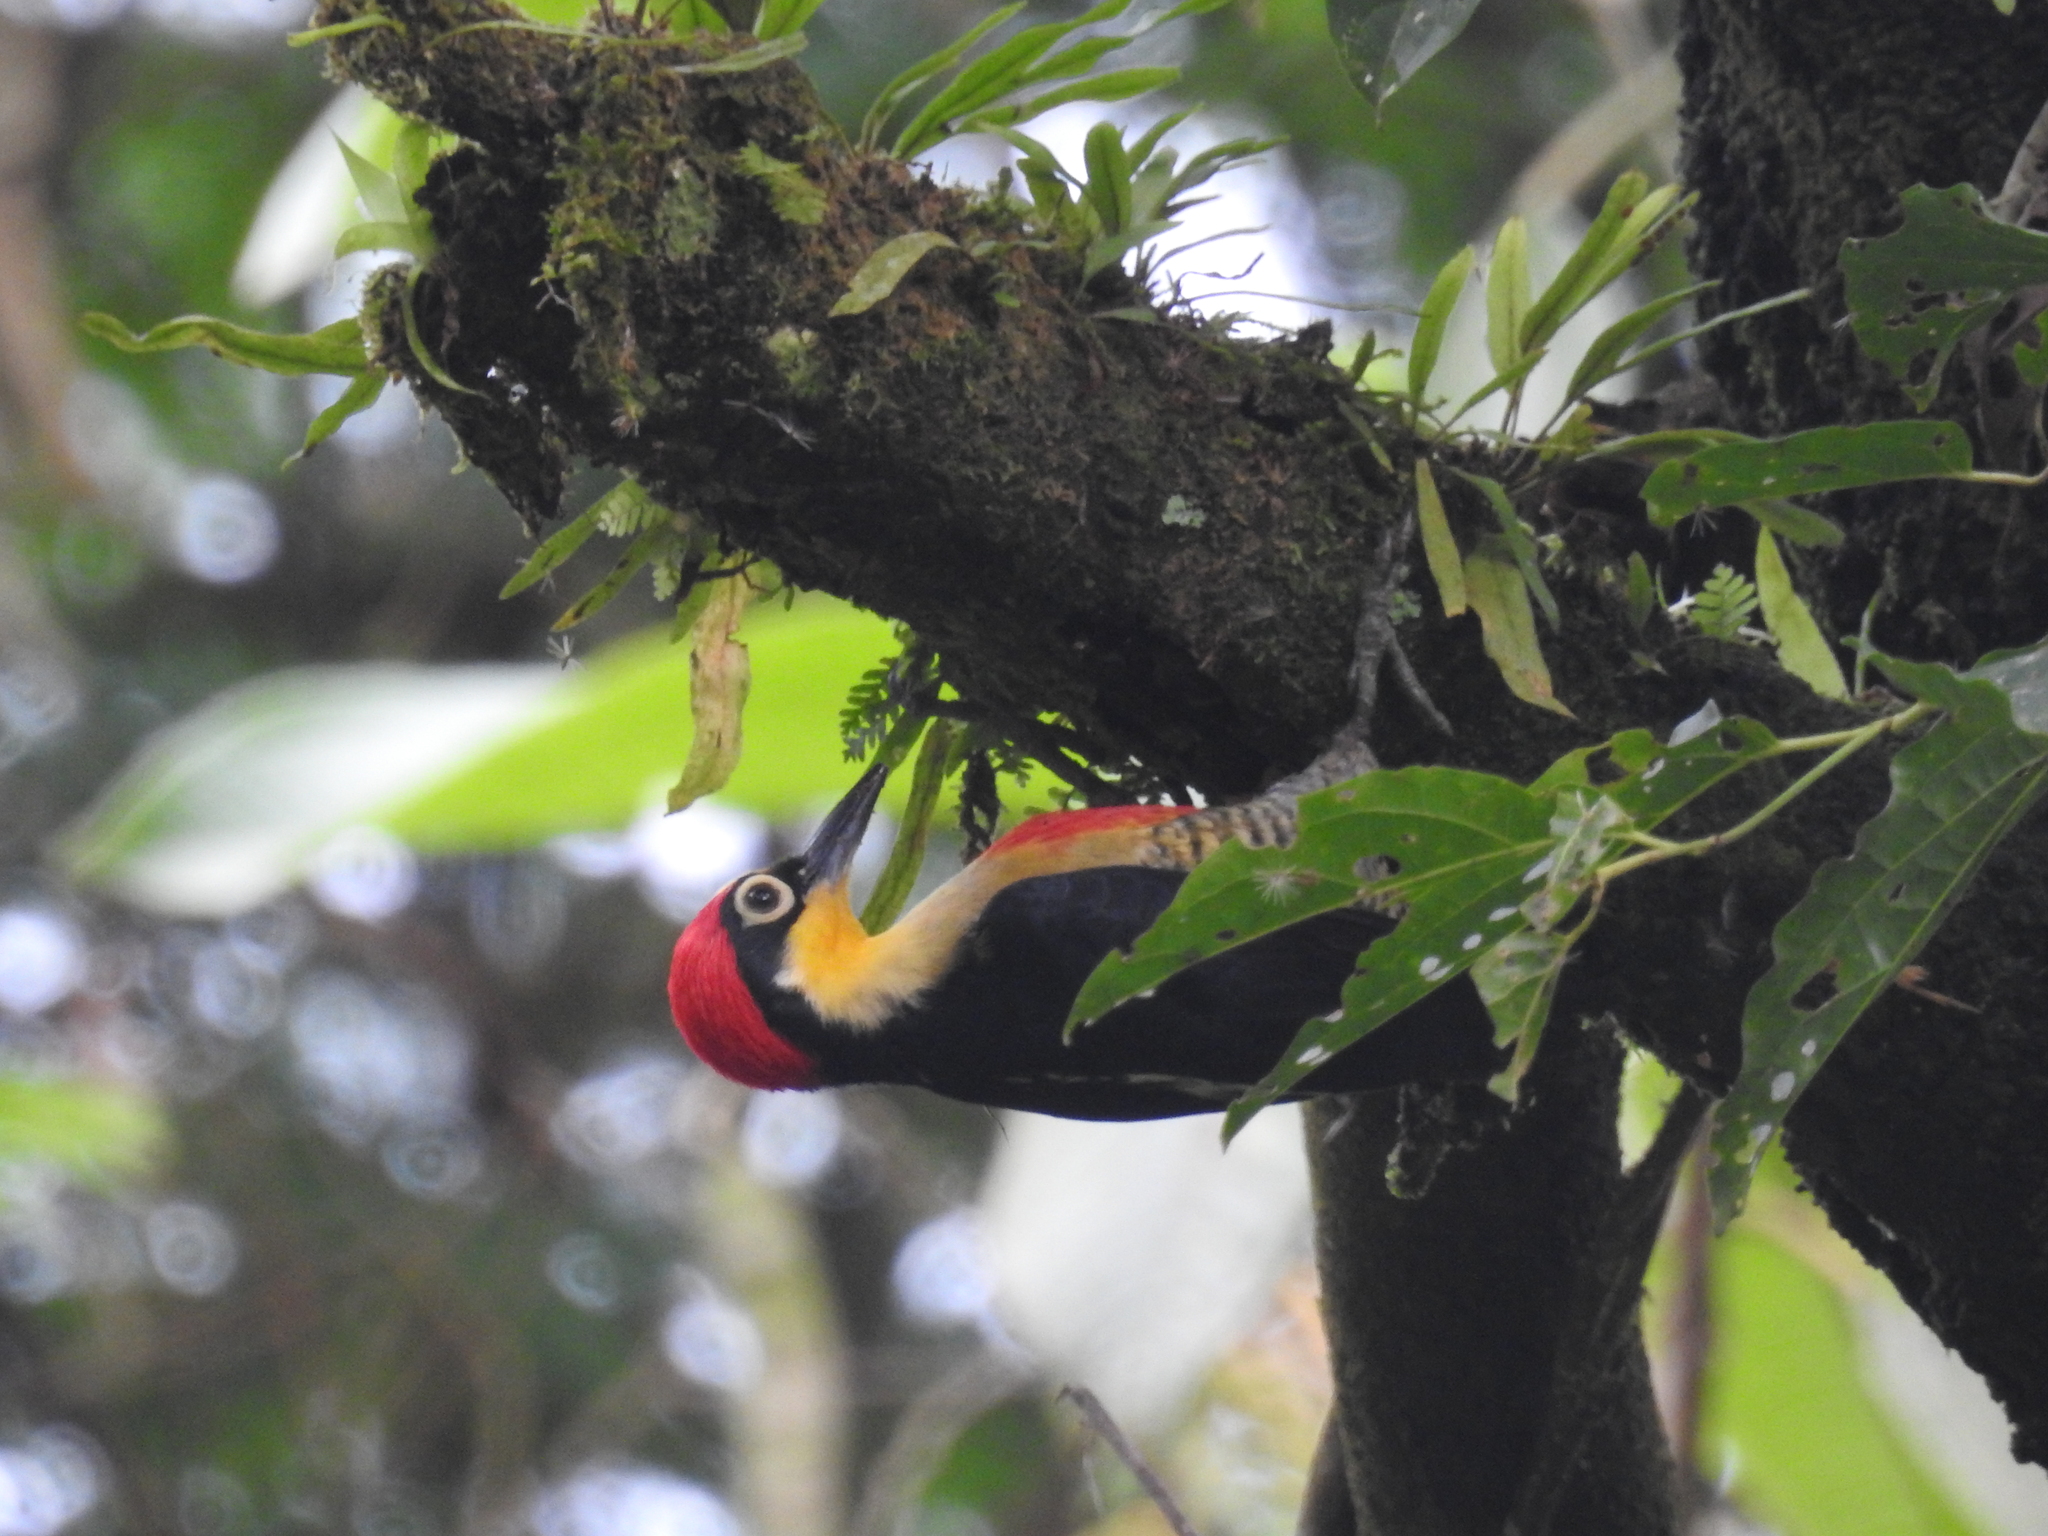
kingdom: Animalia
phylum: Chordata
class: Aves
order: Piciformes
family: Picidae
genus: Melanerpes
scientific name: Melanerpes flavifrons
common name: Yellow-fronted woodpecker
